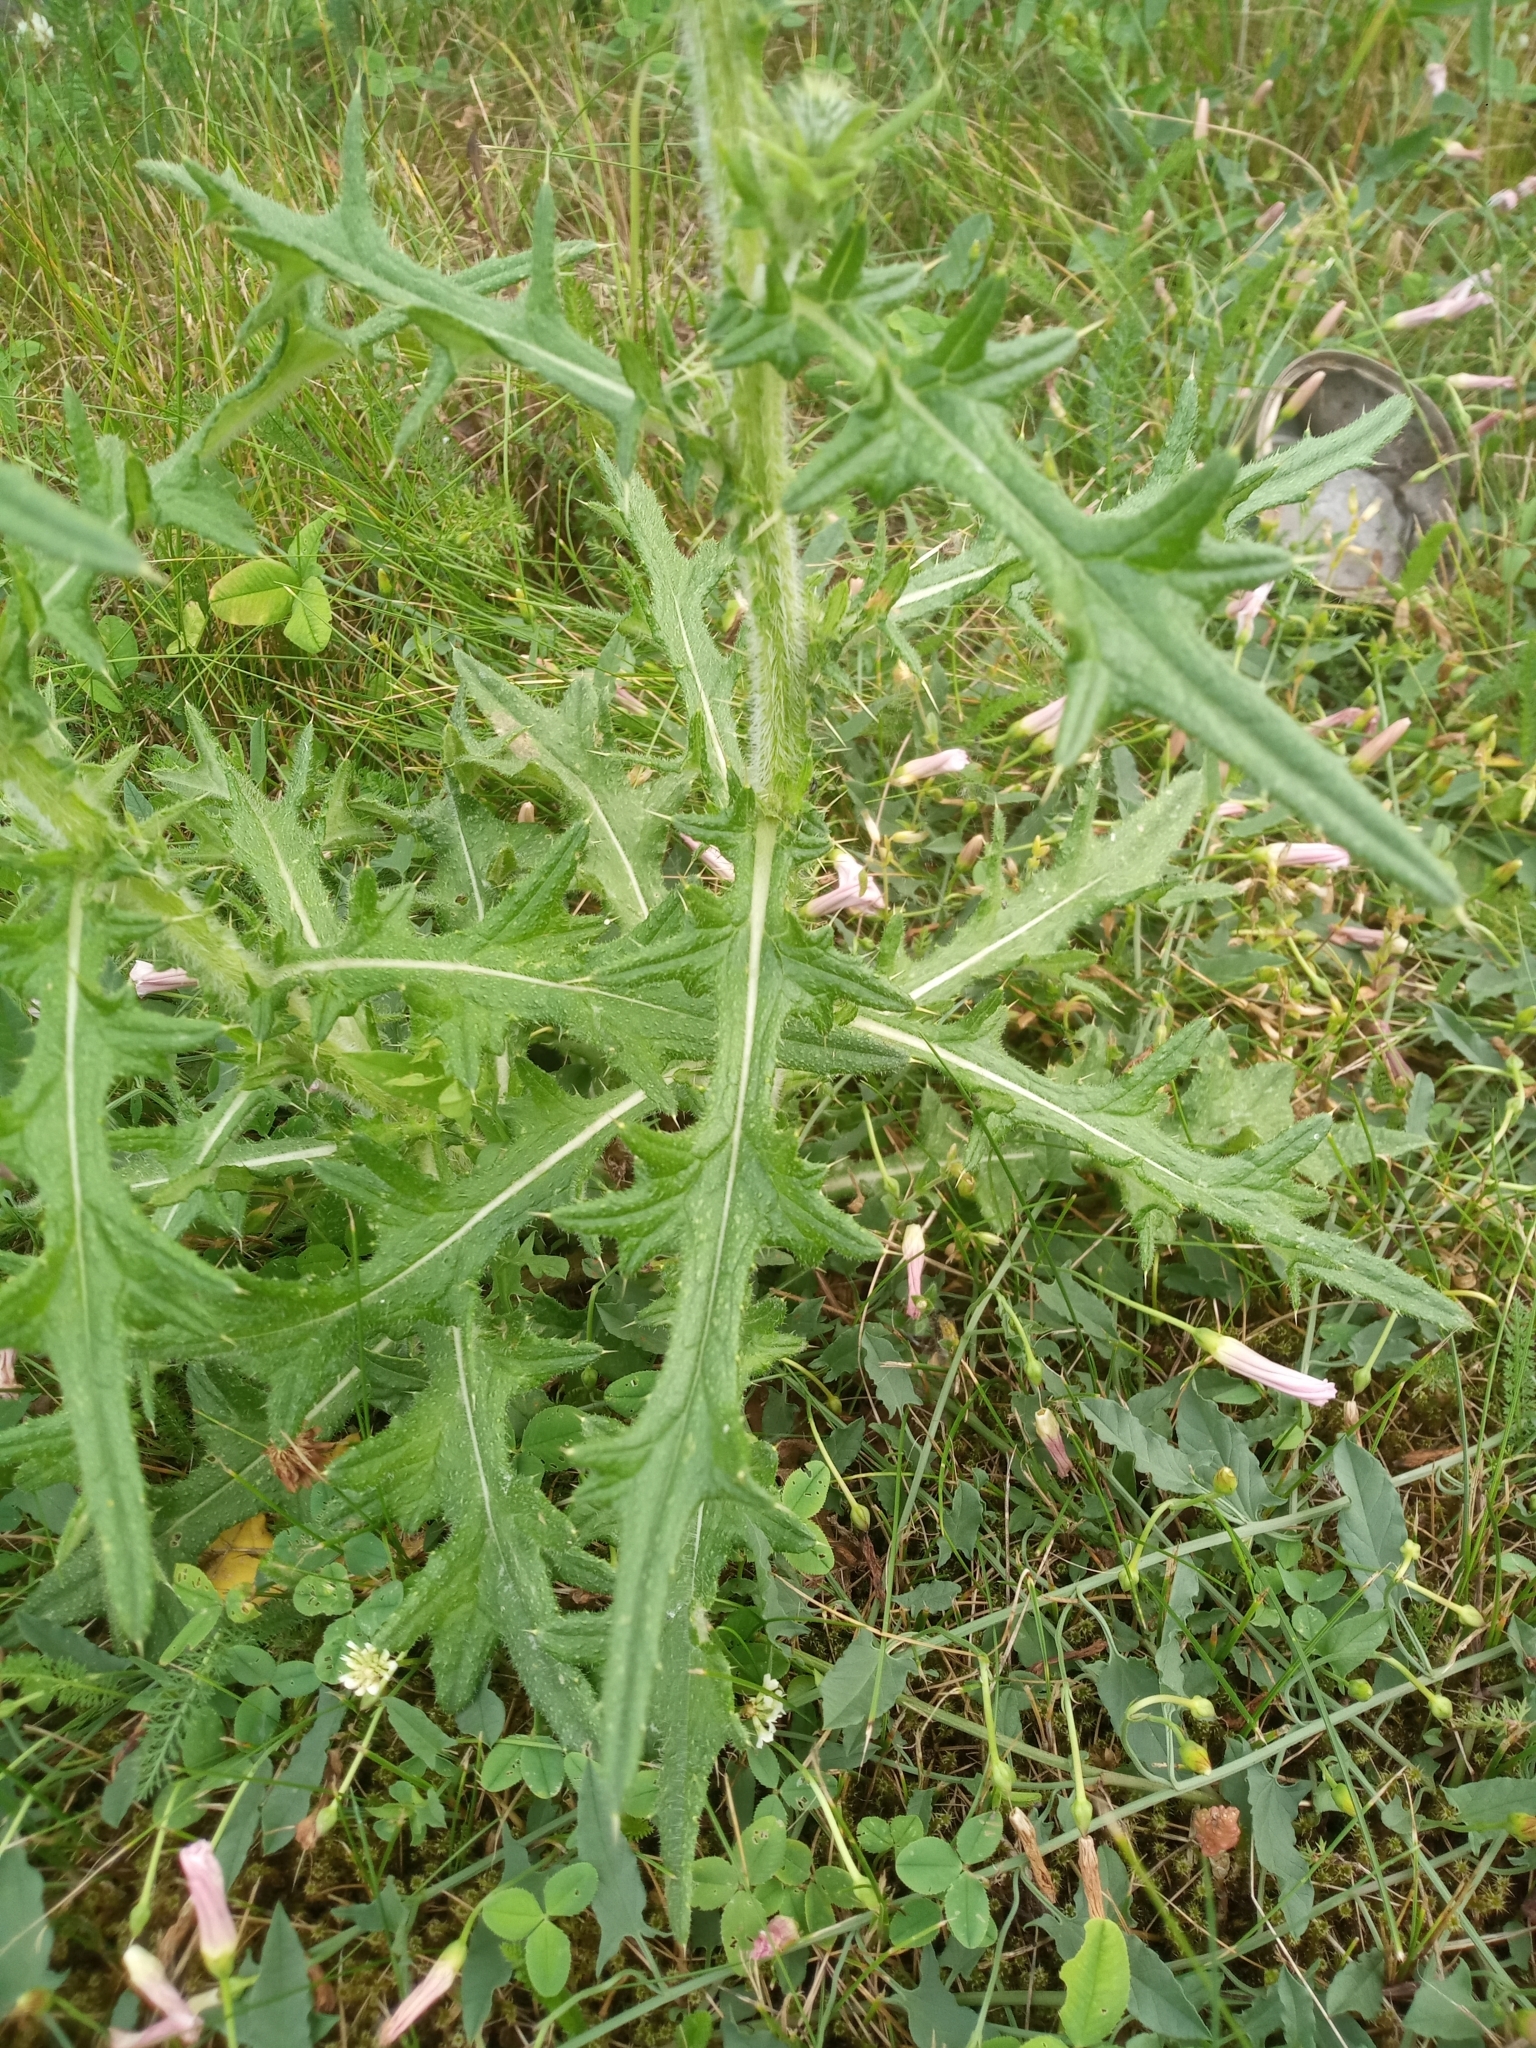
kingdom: Plantae
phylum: Tracheophyta
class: Magnoliopsida
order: Asterales
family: Asteraceae
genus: Cirsium
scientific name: Cirsium vulgare
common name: Bull thistle
